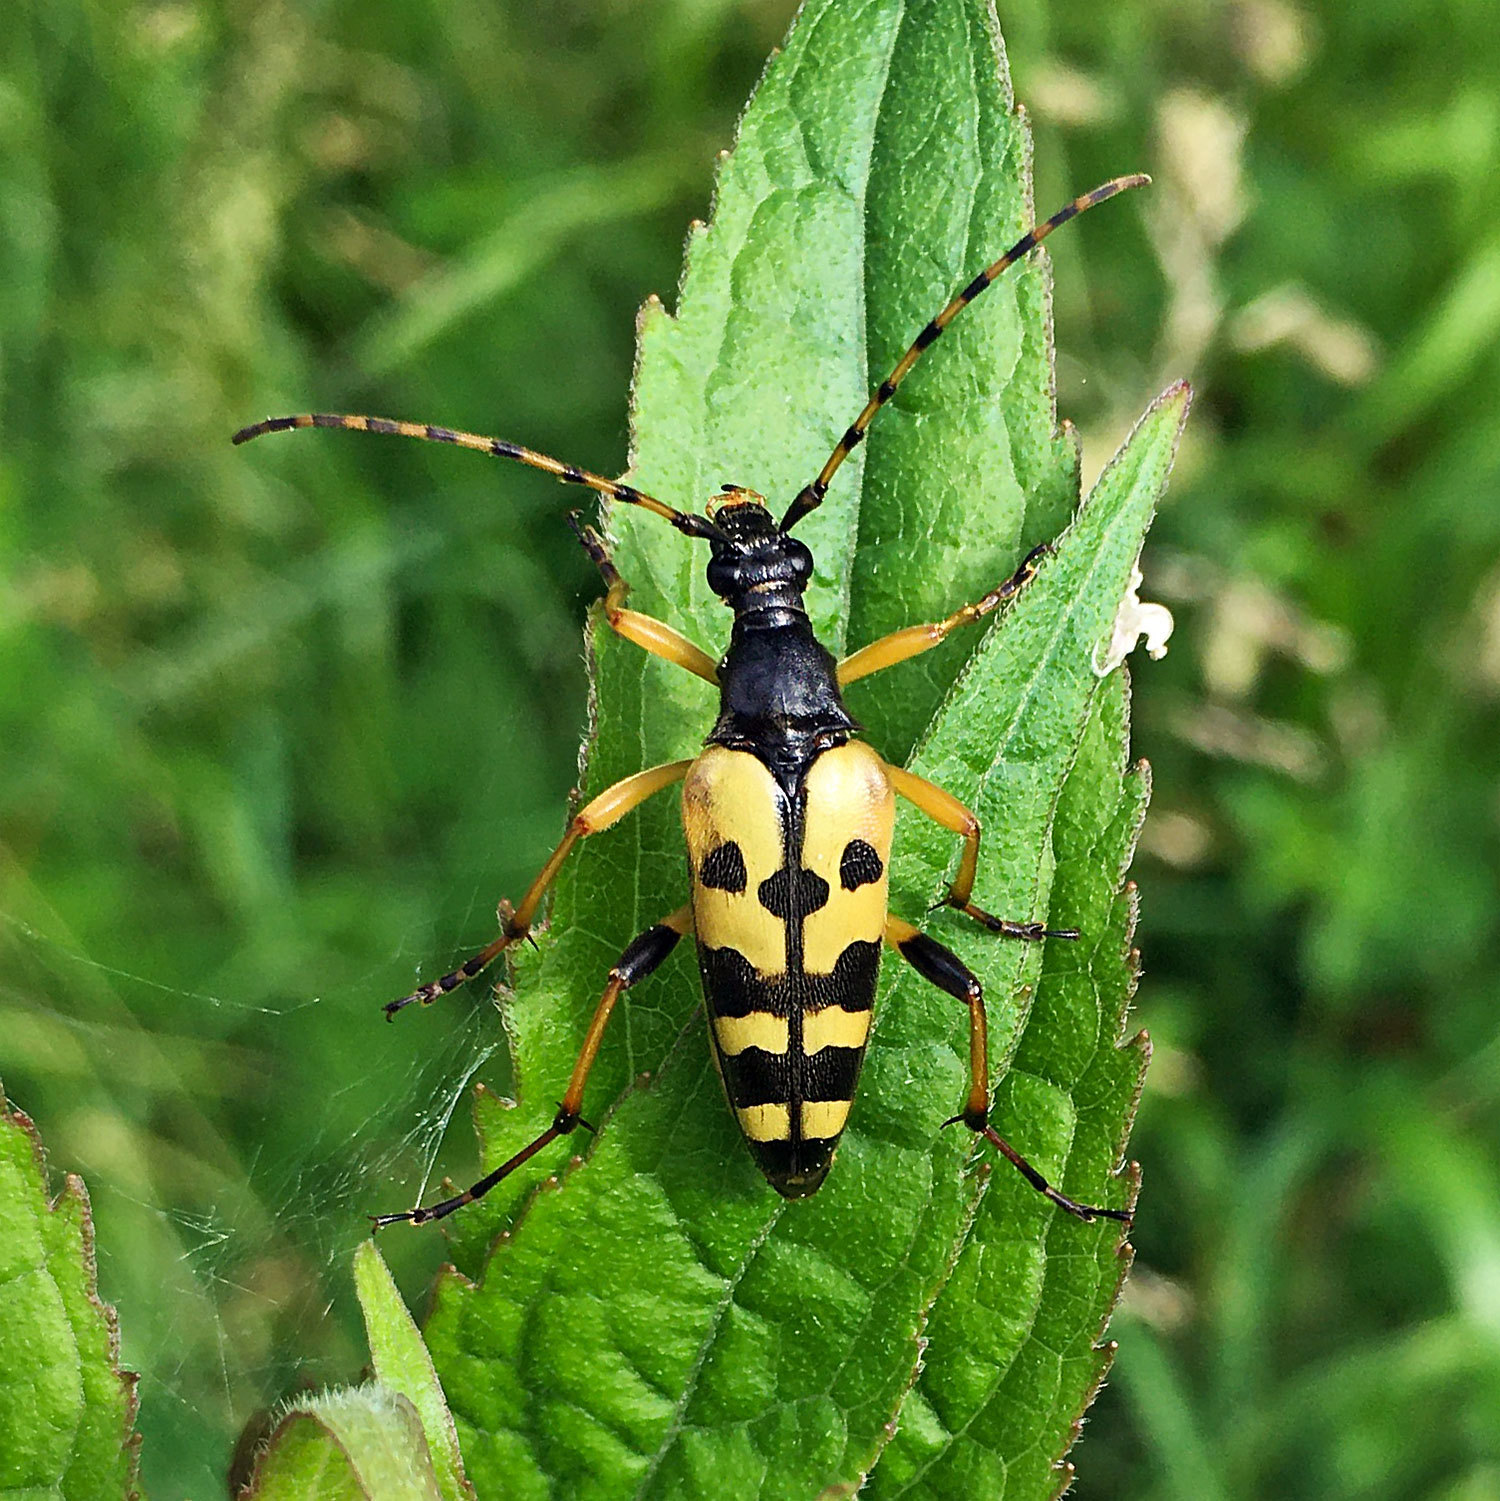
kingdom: Animalia
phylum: Arthropoda
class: Insecta
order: Coleoptera
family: Cerambycidae
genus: Rutpela
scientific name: Rutpela maculata
